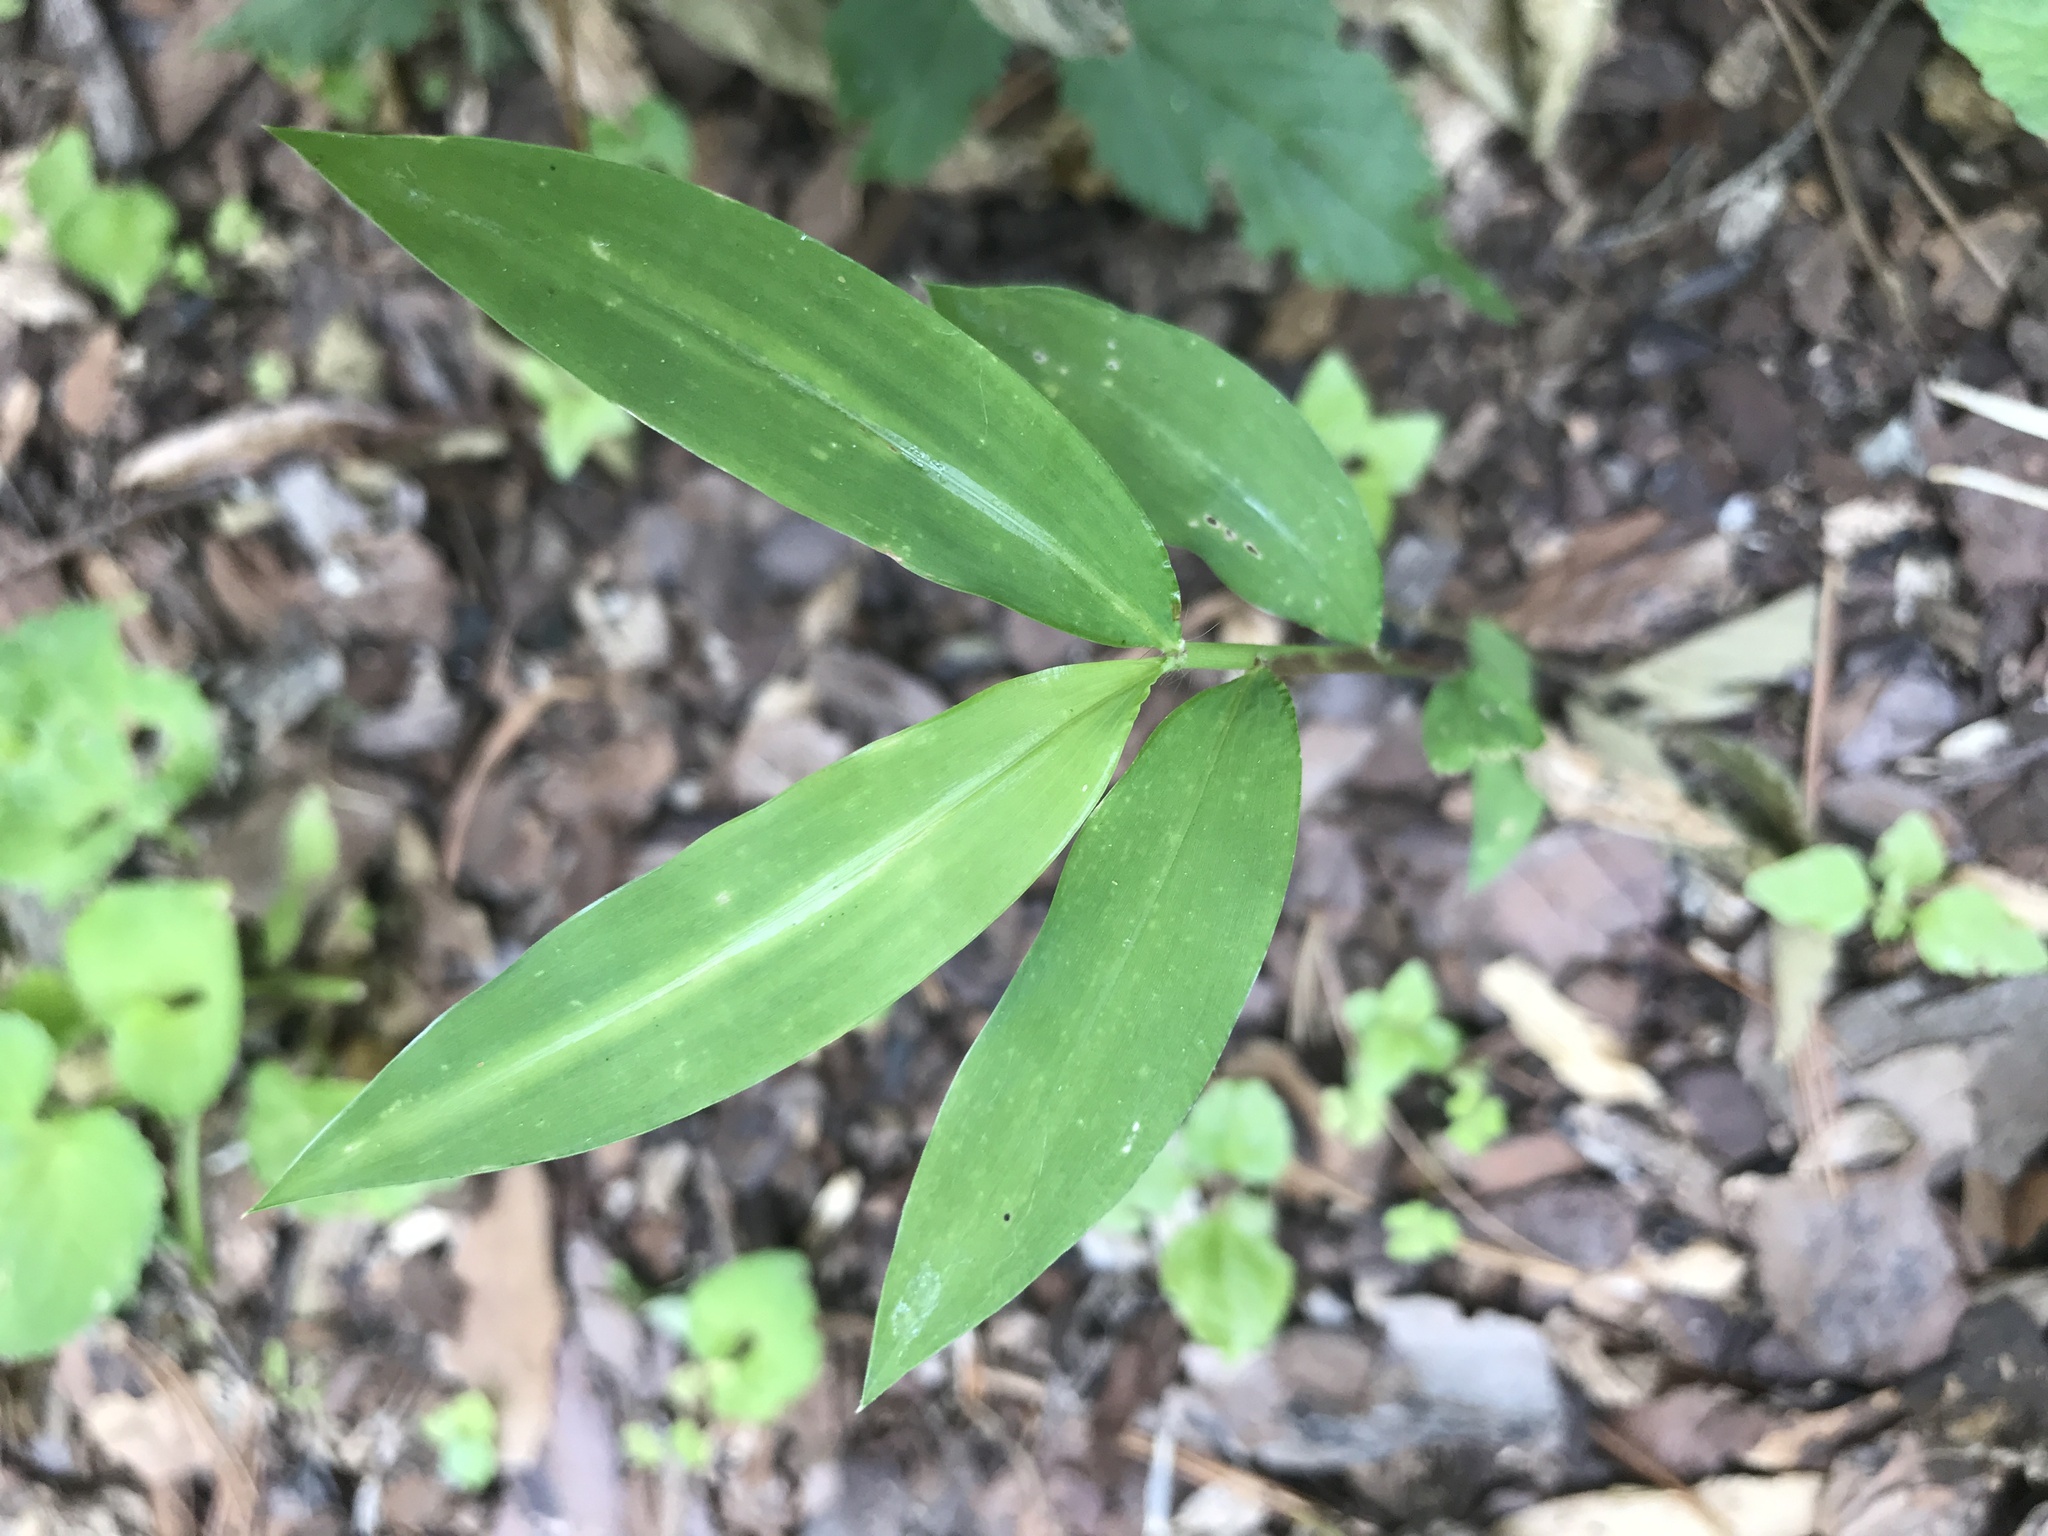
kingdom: Plantae
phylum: Tracheophyta
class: Liliopsida
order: Poales
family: Poaceae
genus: Microstegium
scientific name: Microstegium vimineum
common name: Japanese stiltgrass
